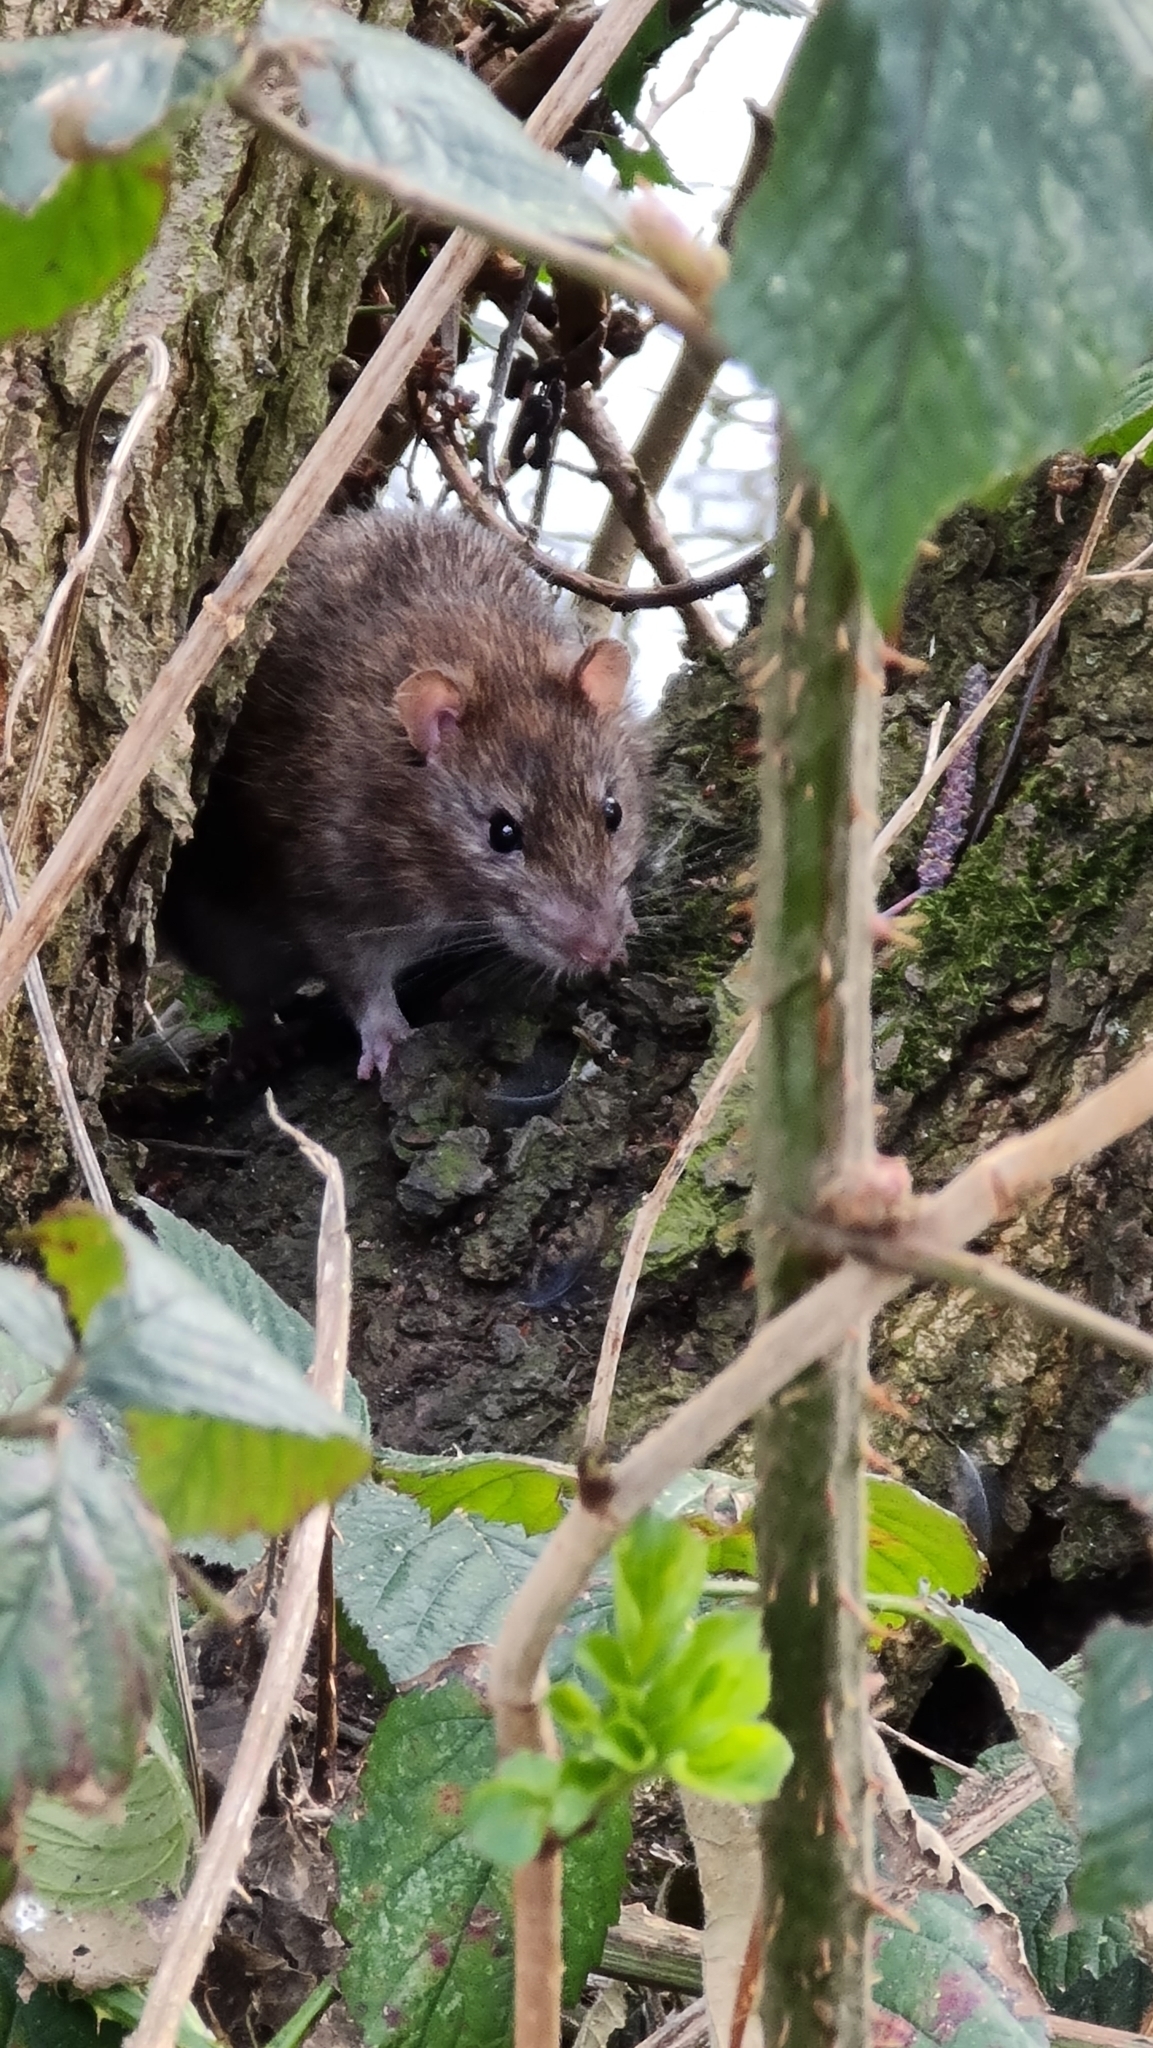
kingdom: Animalia
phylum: Chordata
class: Mammalia
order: Rodentia
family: Muridae
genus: Rattus
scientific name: Rattus norvegicus
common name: Brown rat
